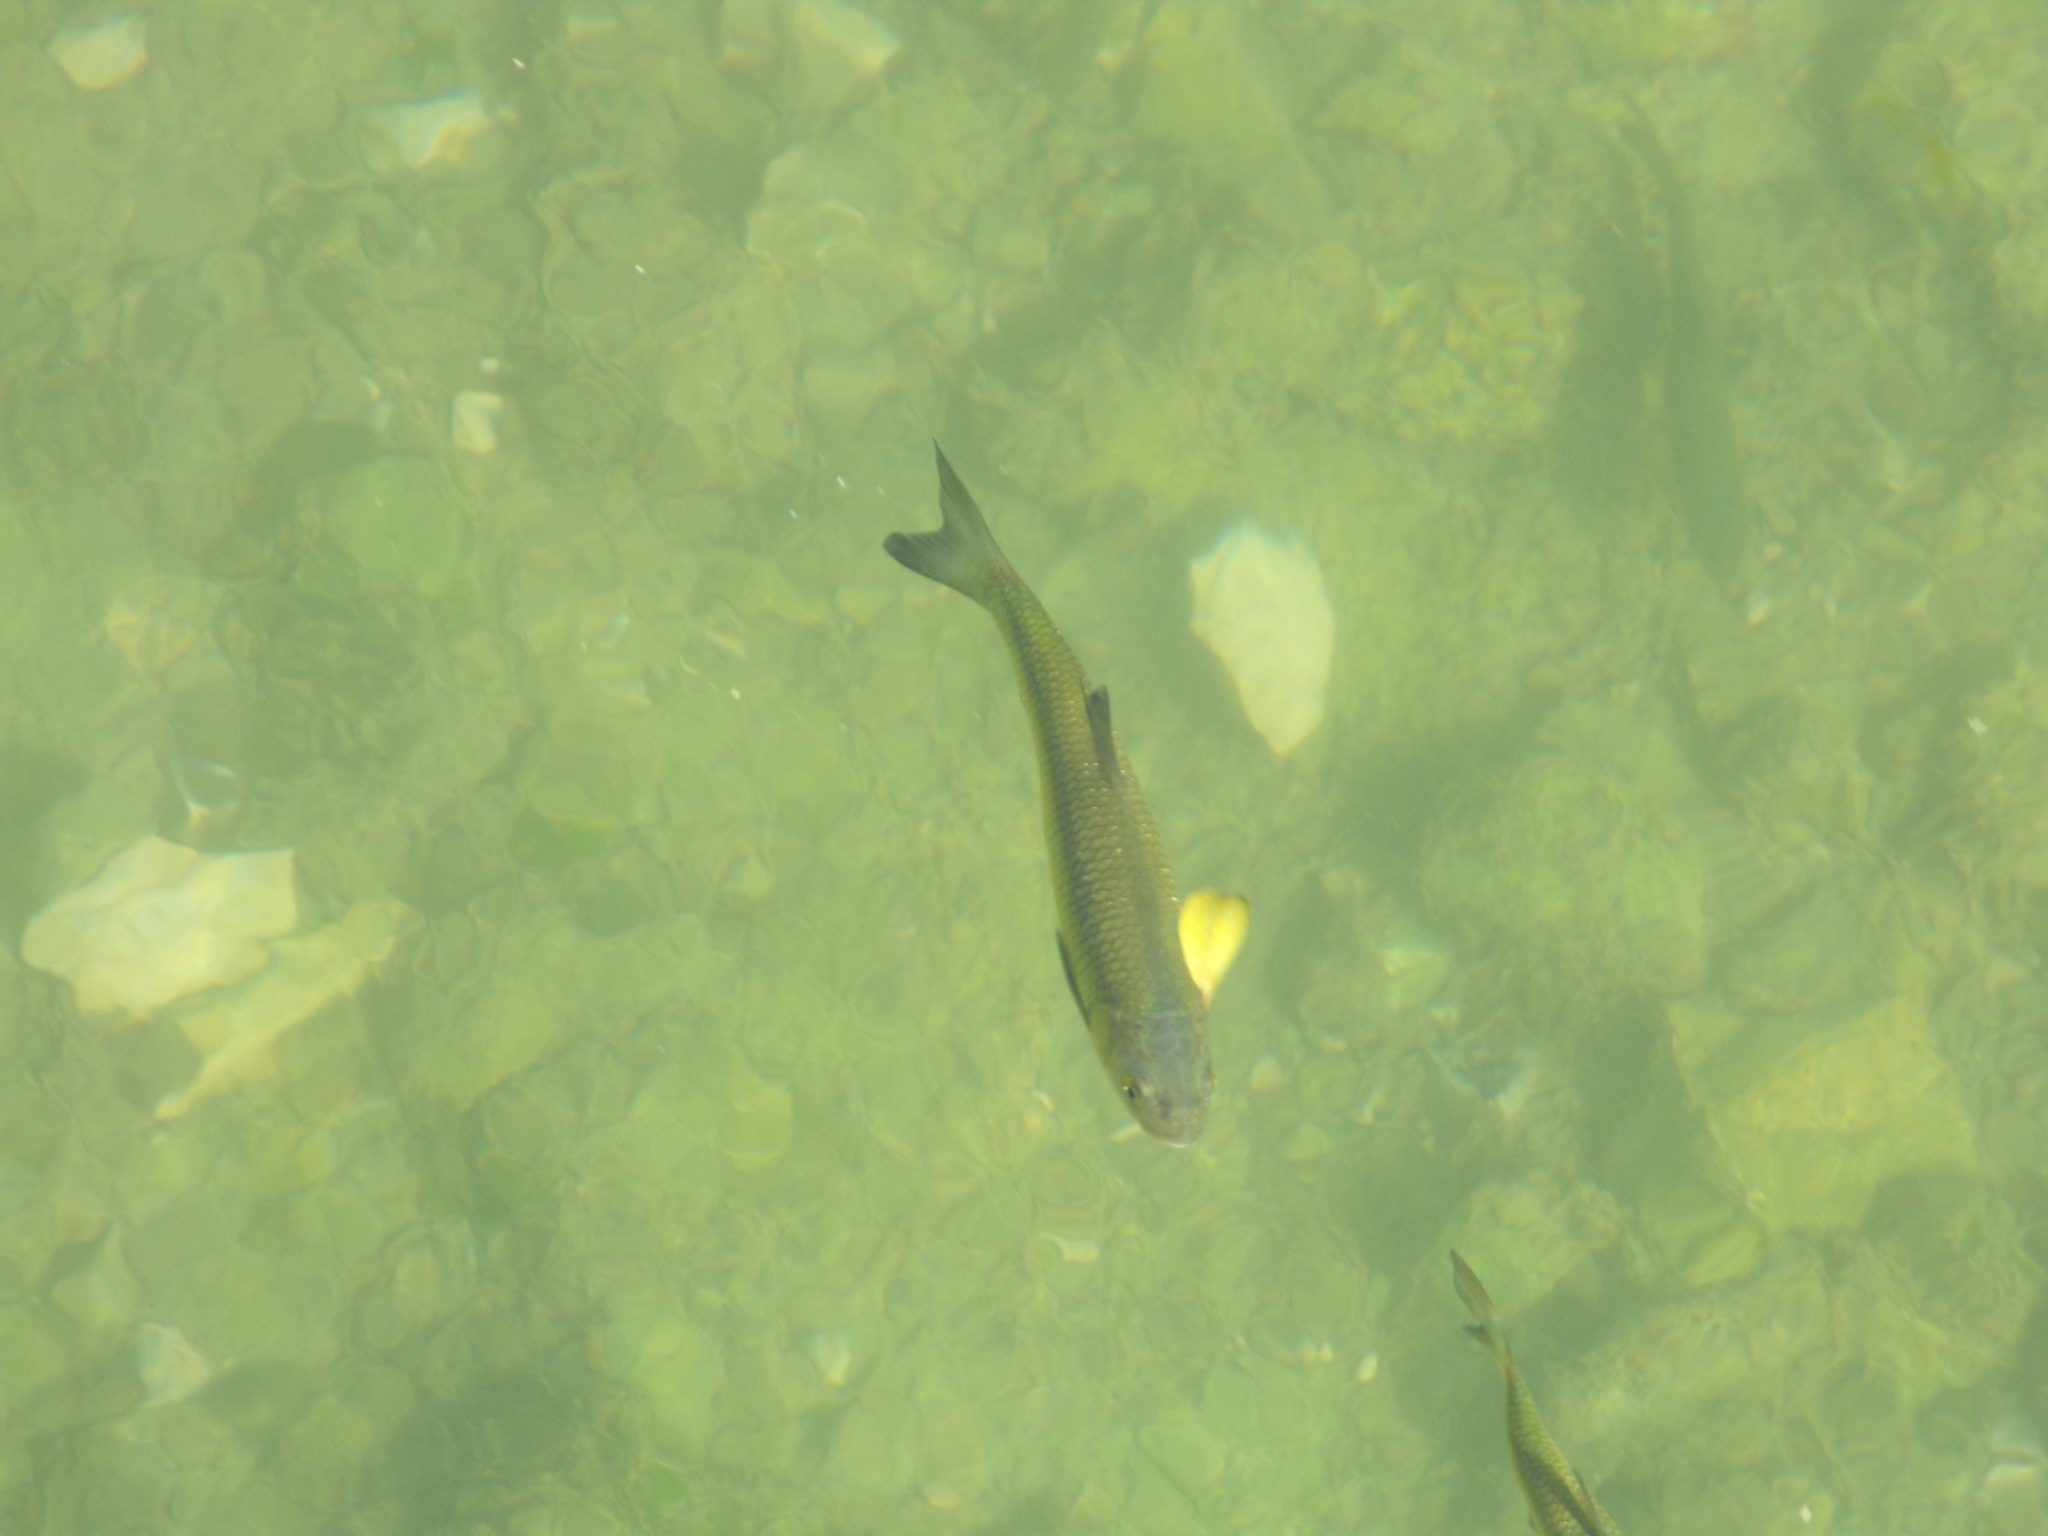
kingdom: Animalia
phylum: Chordata
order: Cypriniformes
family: Cyprinidae
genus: Squalius
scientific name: Squalius illyricus
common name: Illyrian chub
